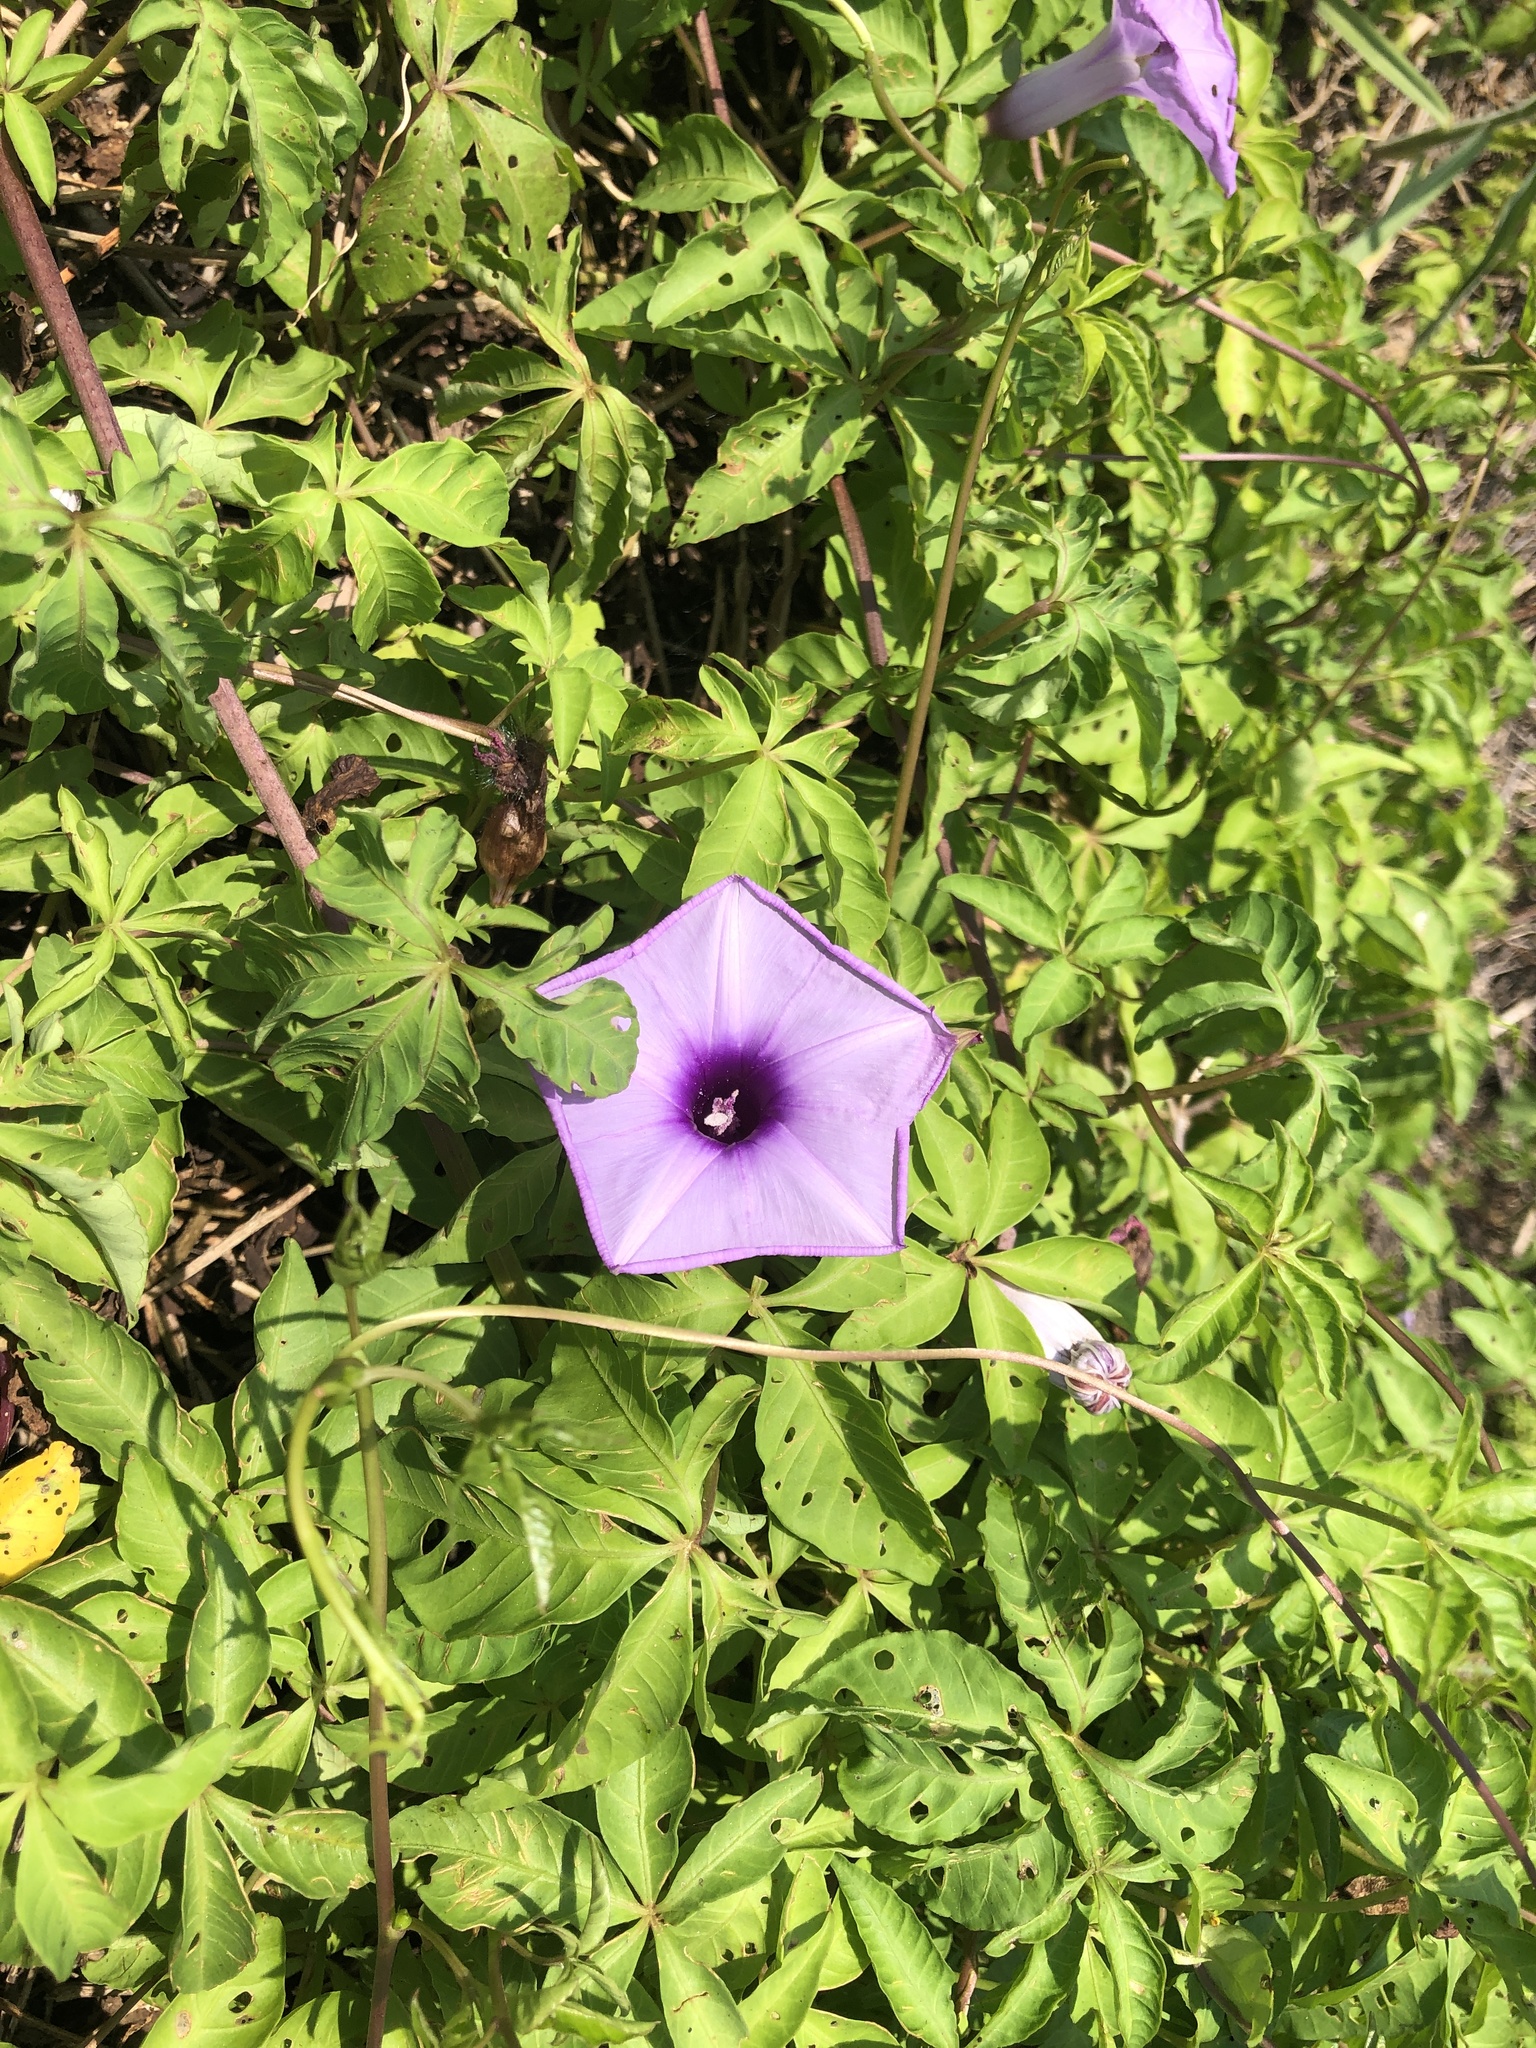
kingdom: Plantae
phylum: Tracheophyta
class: Magnoliopsida
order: Solanales
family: Convolvulaceae
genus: Ipomoea
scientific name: Ipomoea cairica
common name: Mile a minute vine
